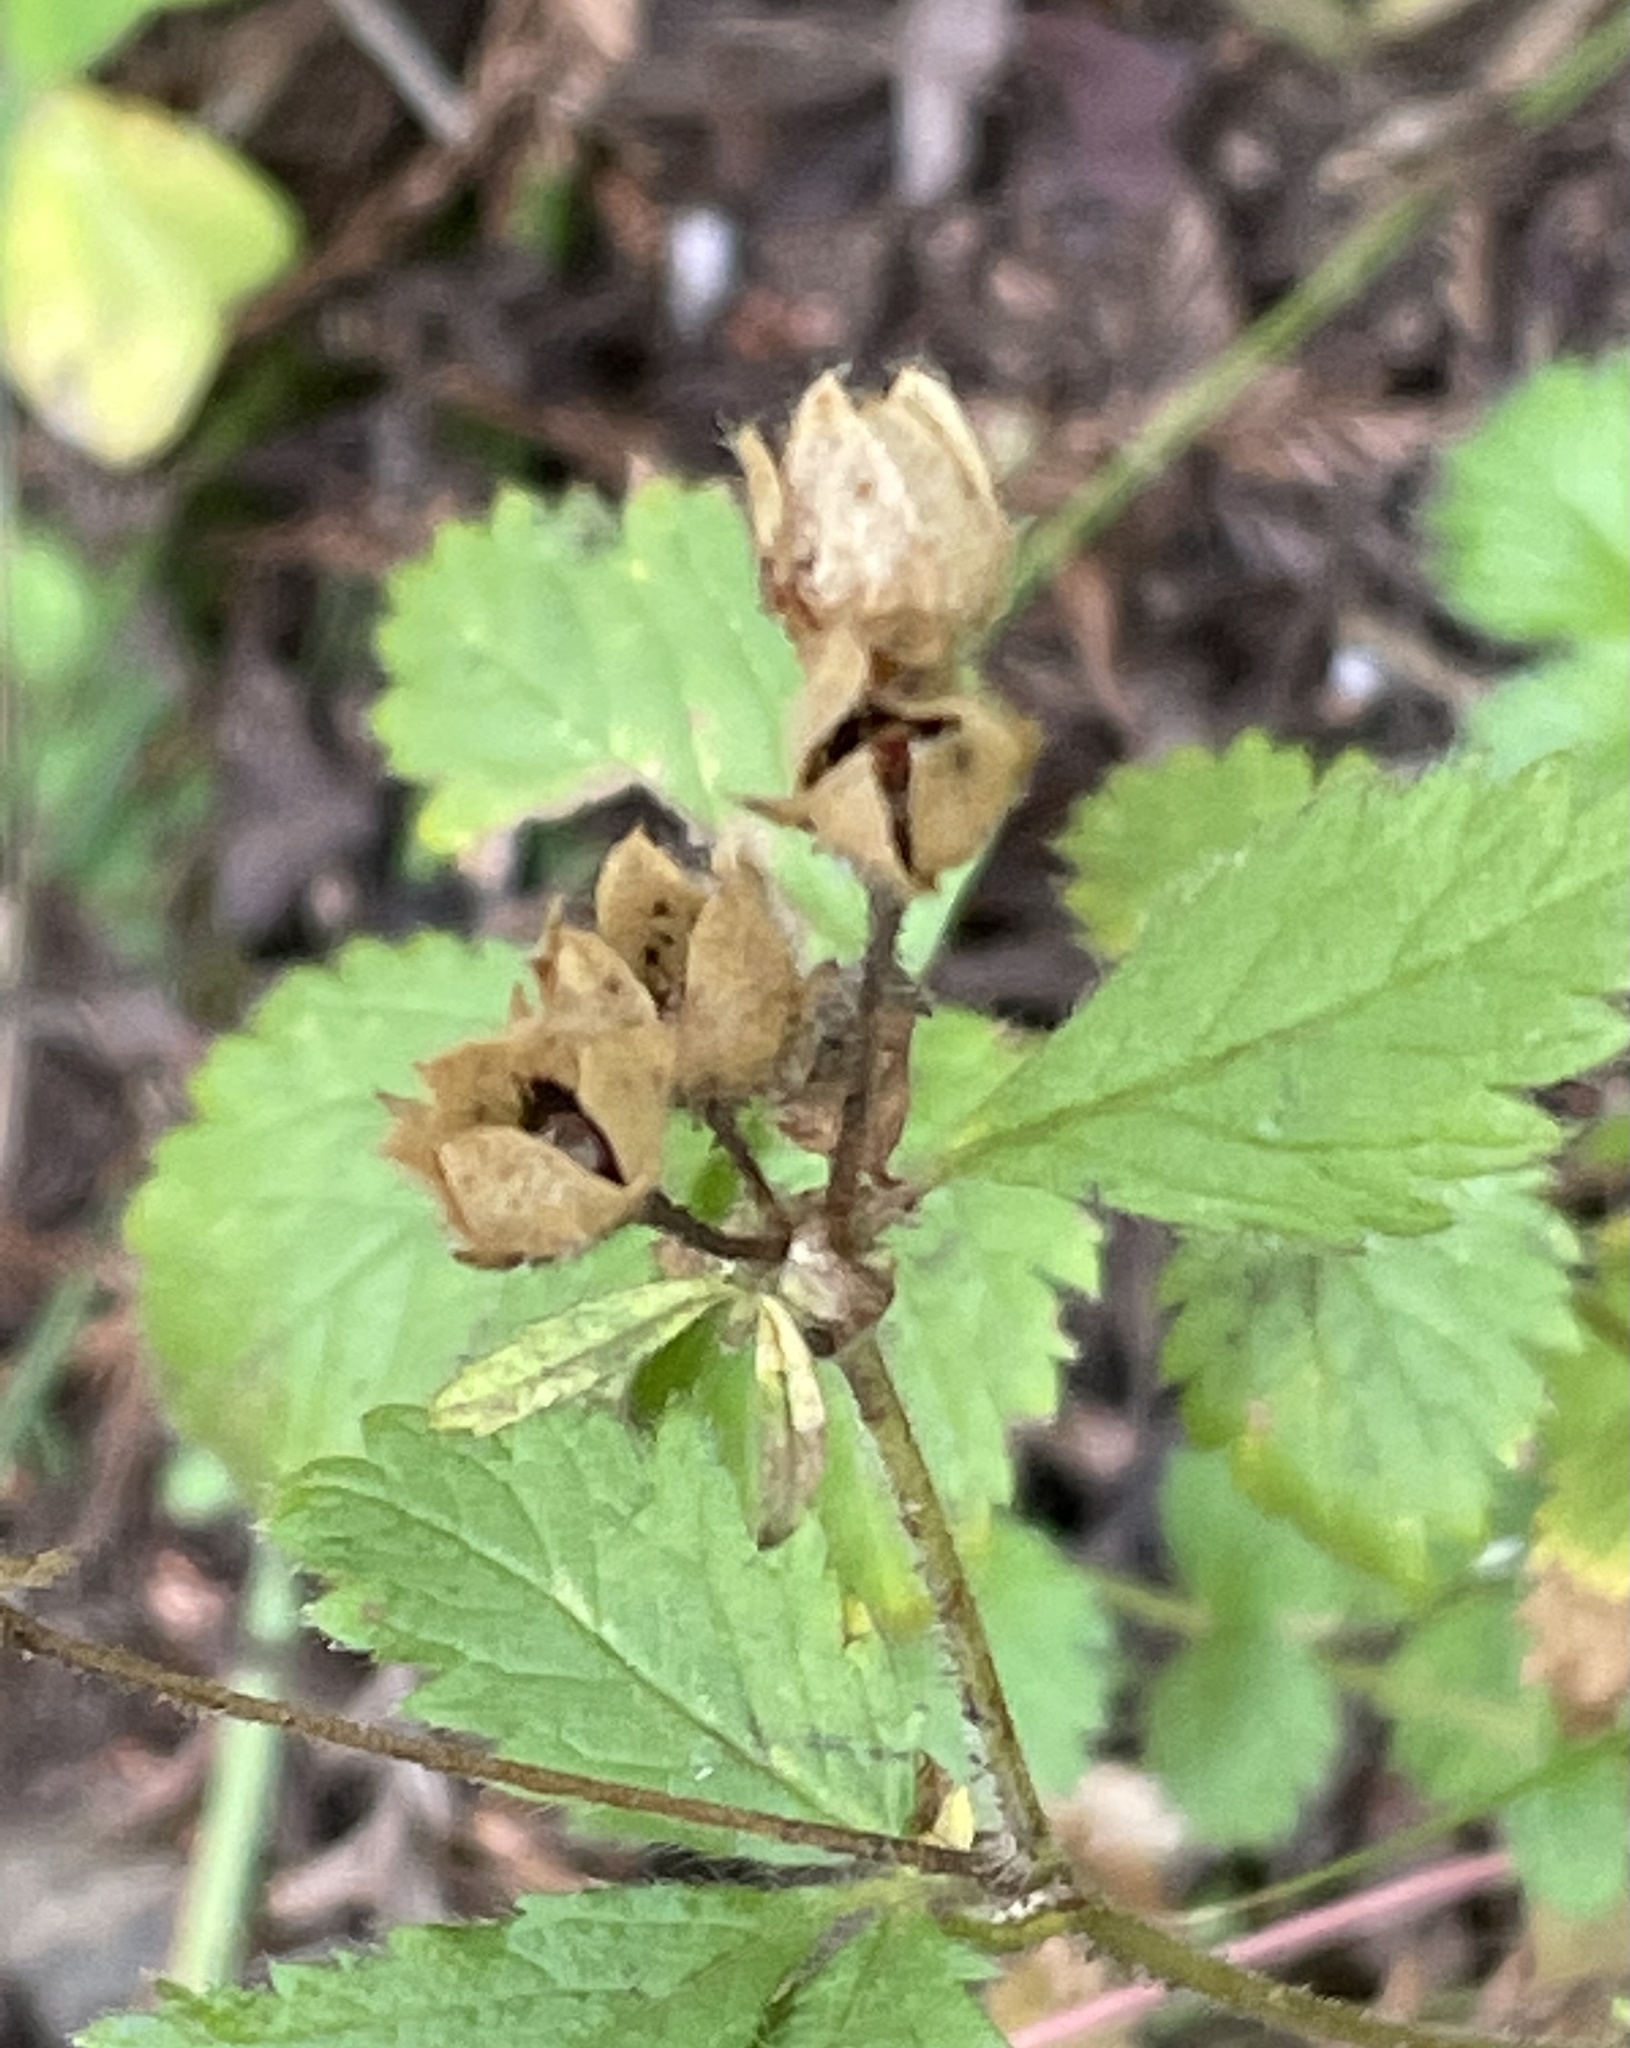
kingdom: Plantae
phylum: Tracheophyta
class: Magnoliopsida
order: Rosales
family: Rosaceae
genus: Drymocallis
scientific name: Drymocallis glandulosa
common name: Sticky cinquefoil
